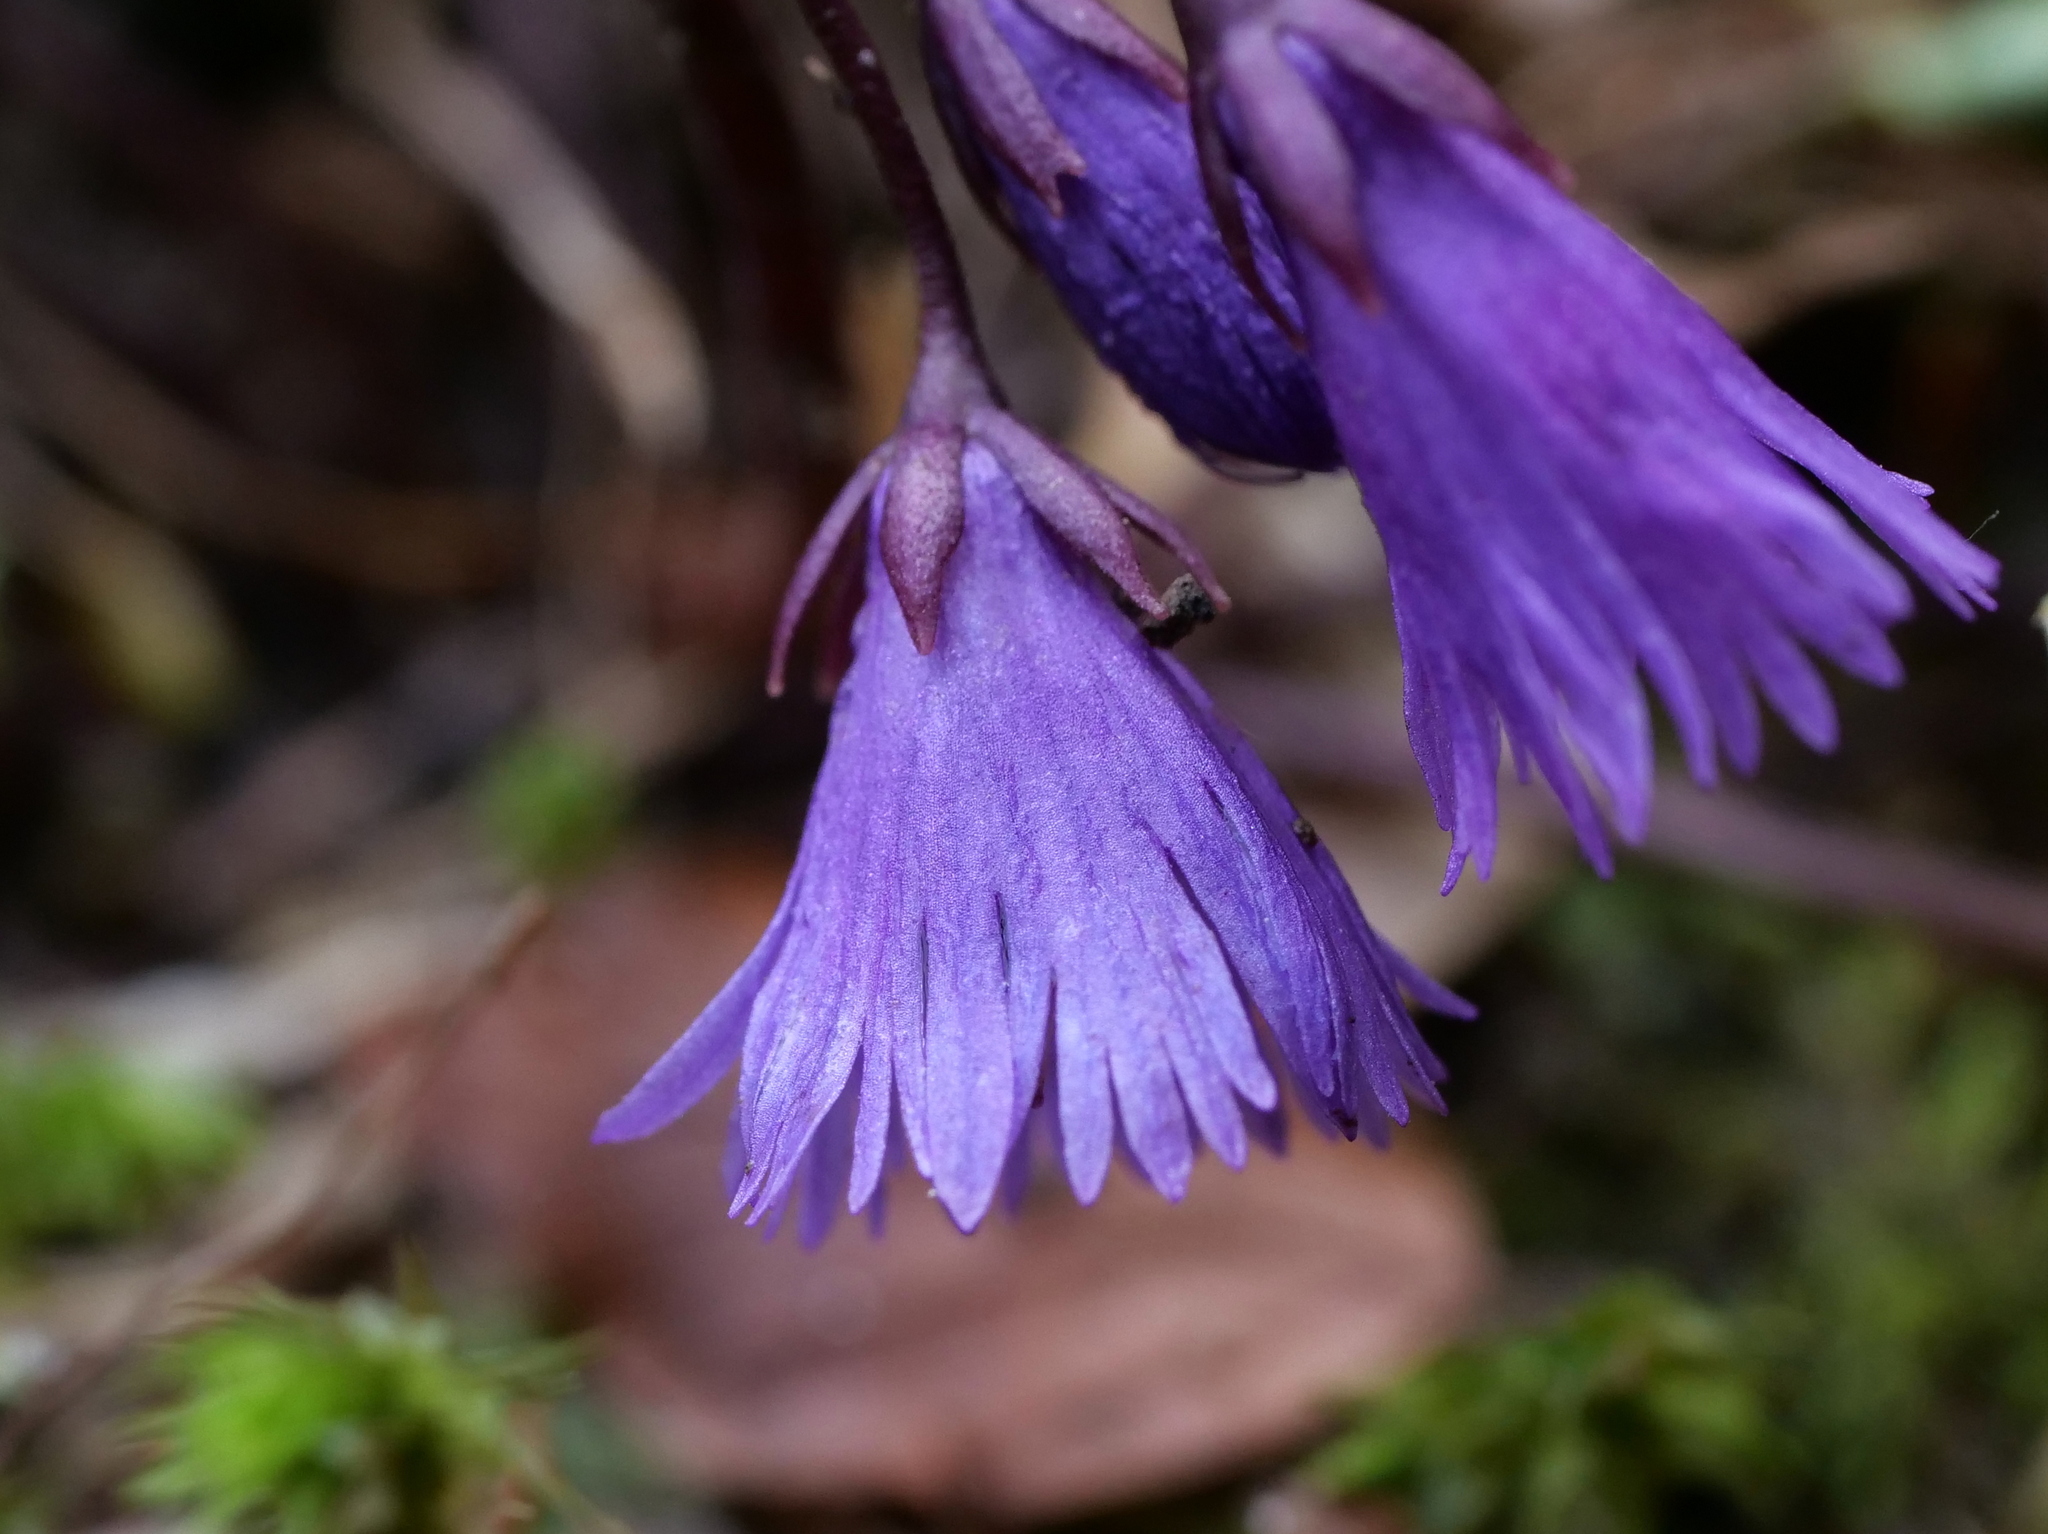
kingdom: Plantae
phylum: Tracheophyta
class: Magnoliopsida
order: Ericales
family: Primulaceae
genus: Soldanella
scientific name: Soldanella alpina
